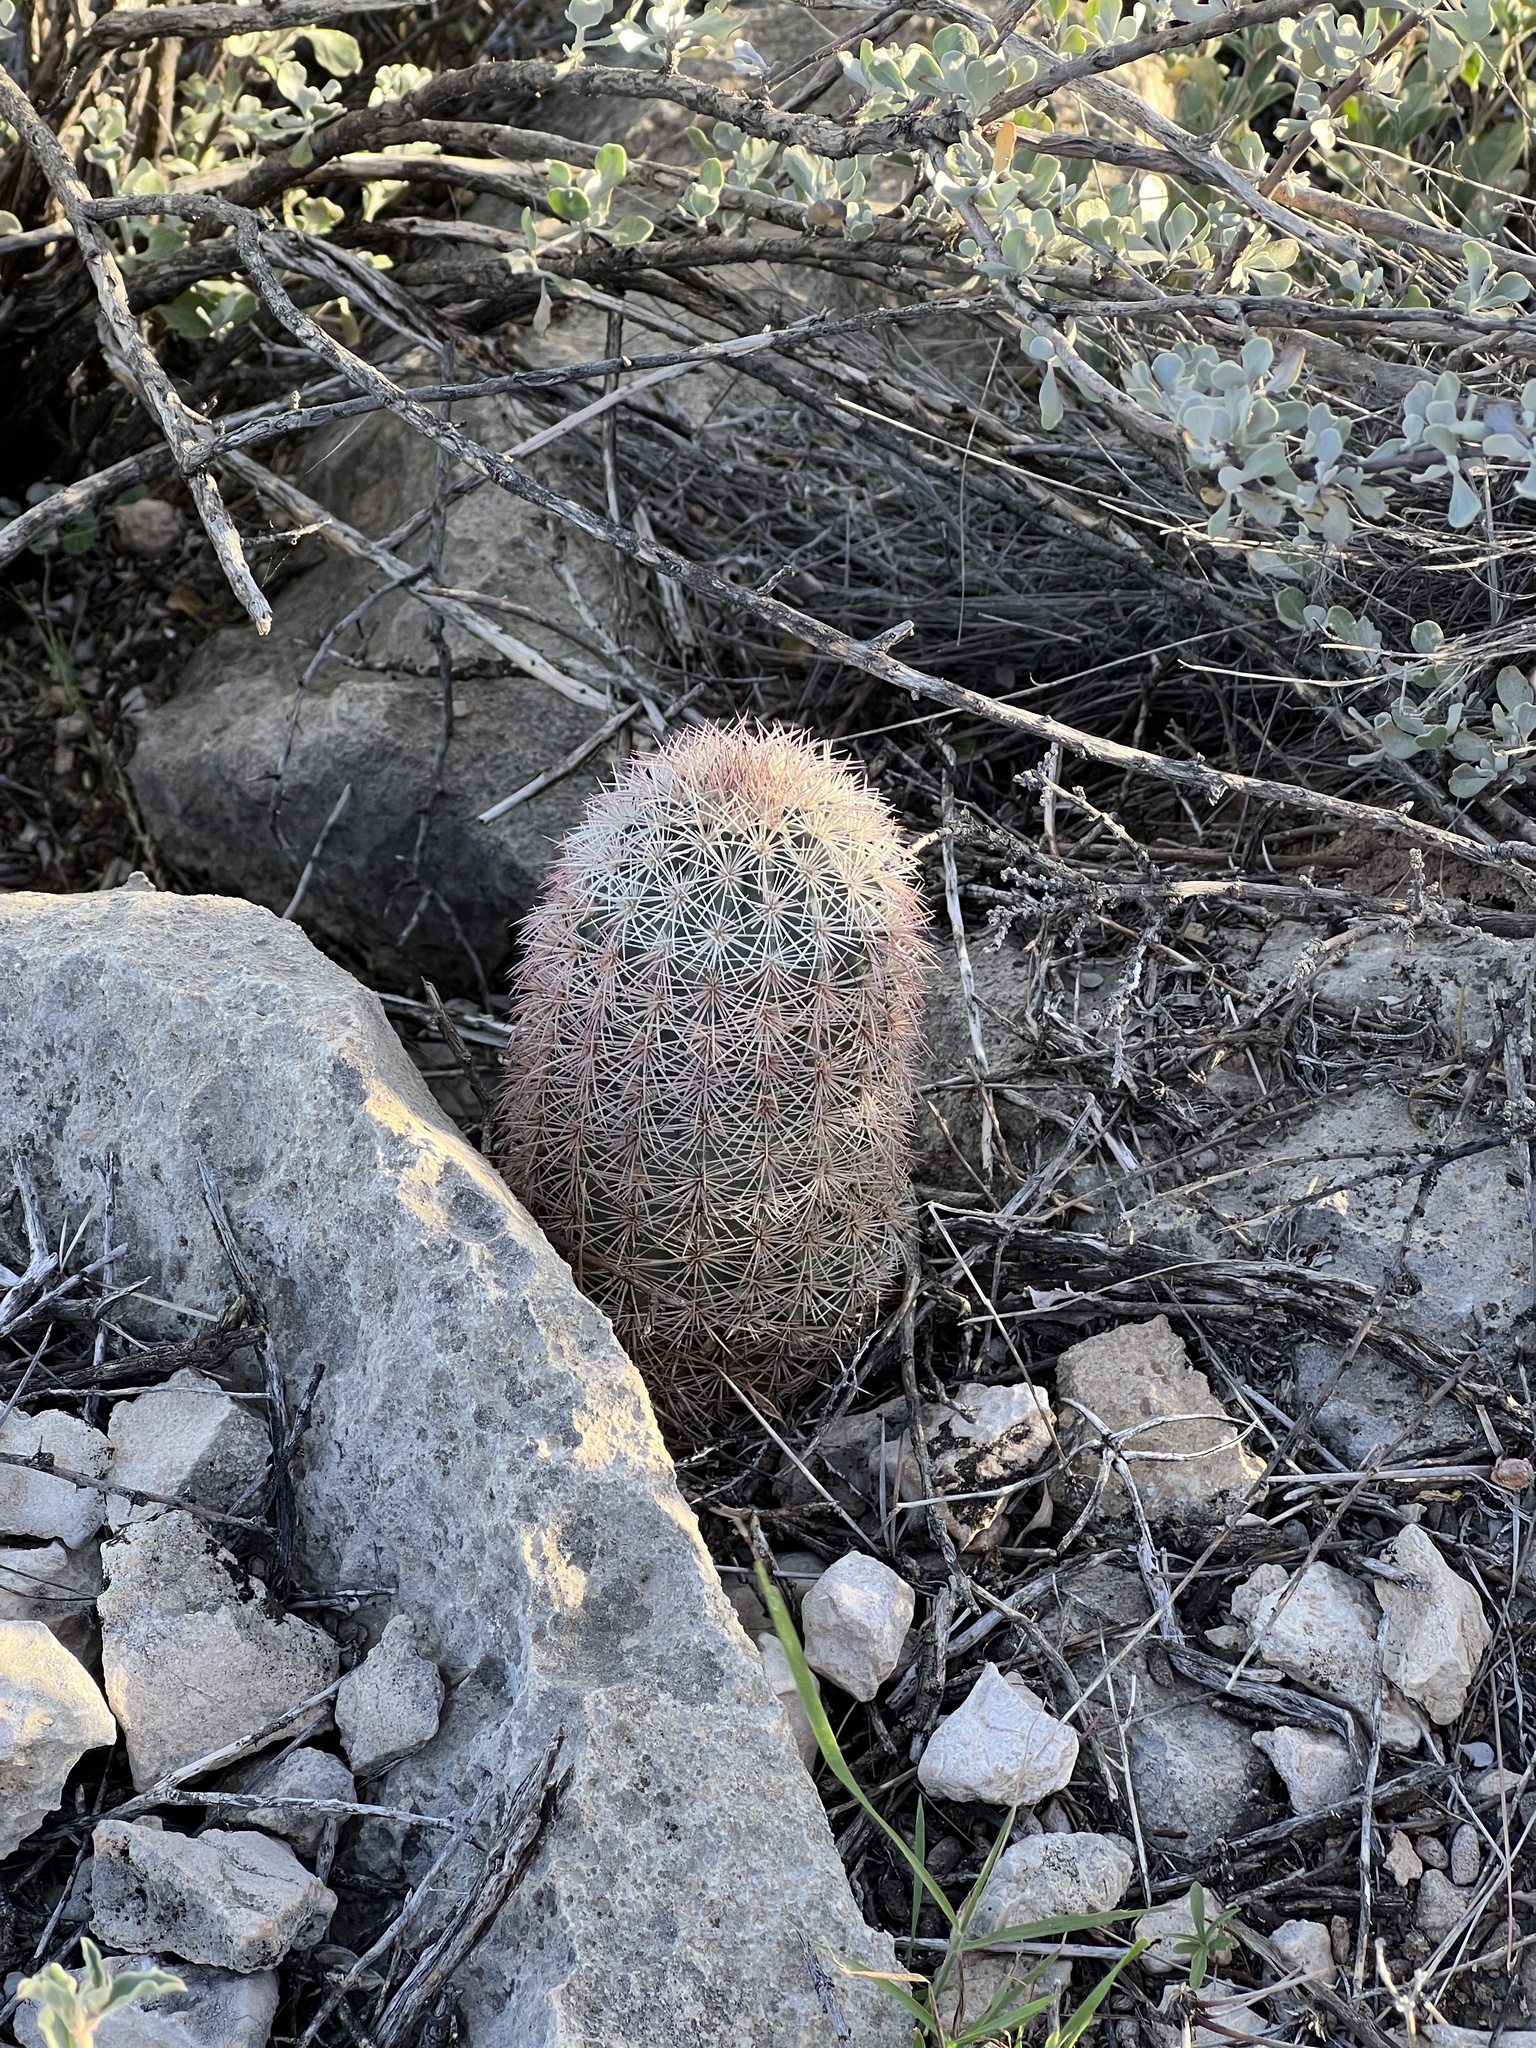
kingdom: Plantae
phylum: Tracheophyta
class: Magnoliopsida
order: Caryophyllales
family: Cactaceae
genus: Echinocereus
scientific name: Echinocereus dasyacanthus
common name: Spiny hedgehog cactus
